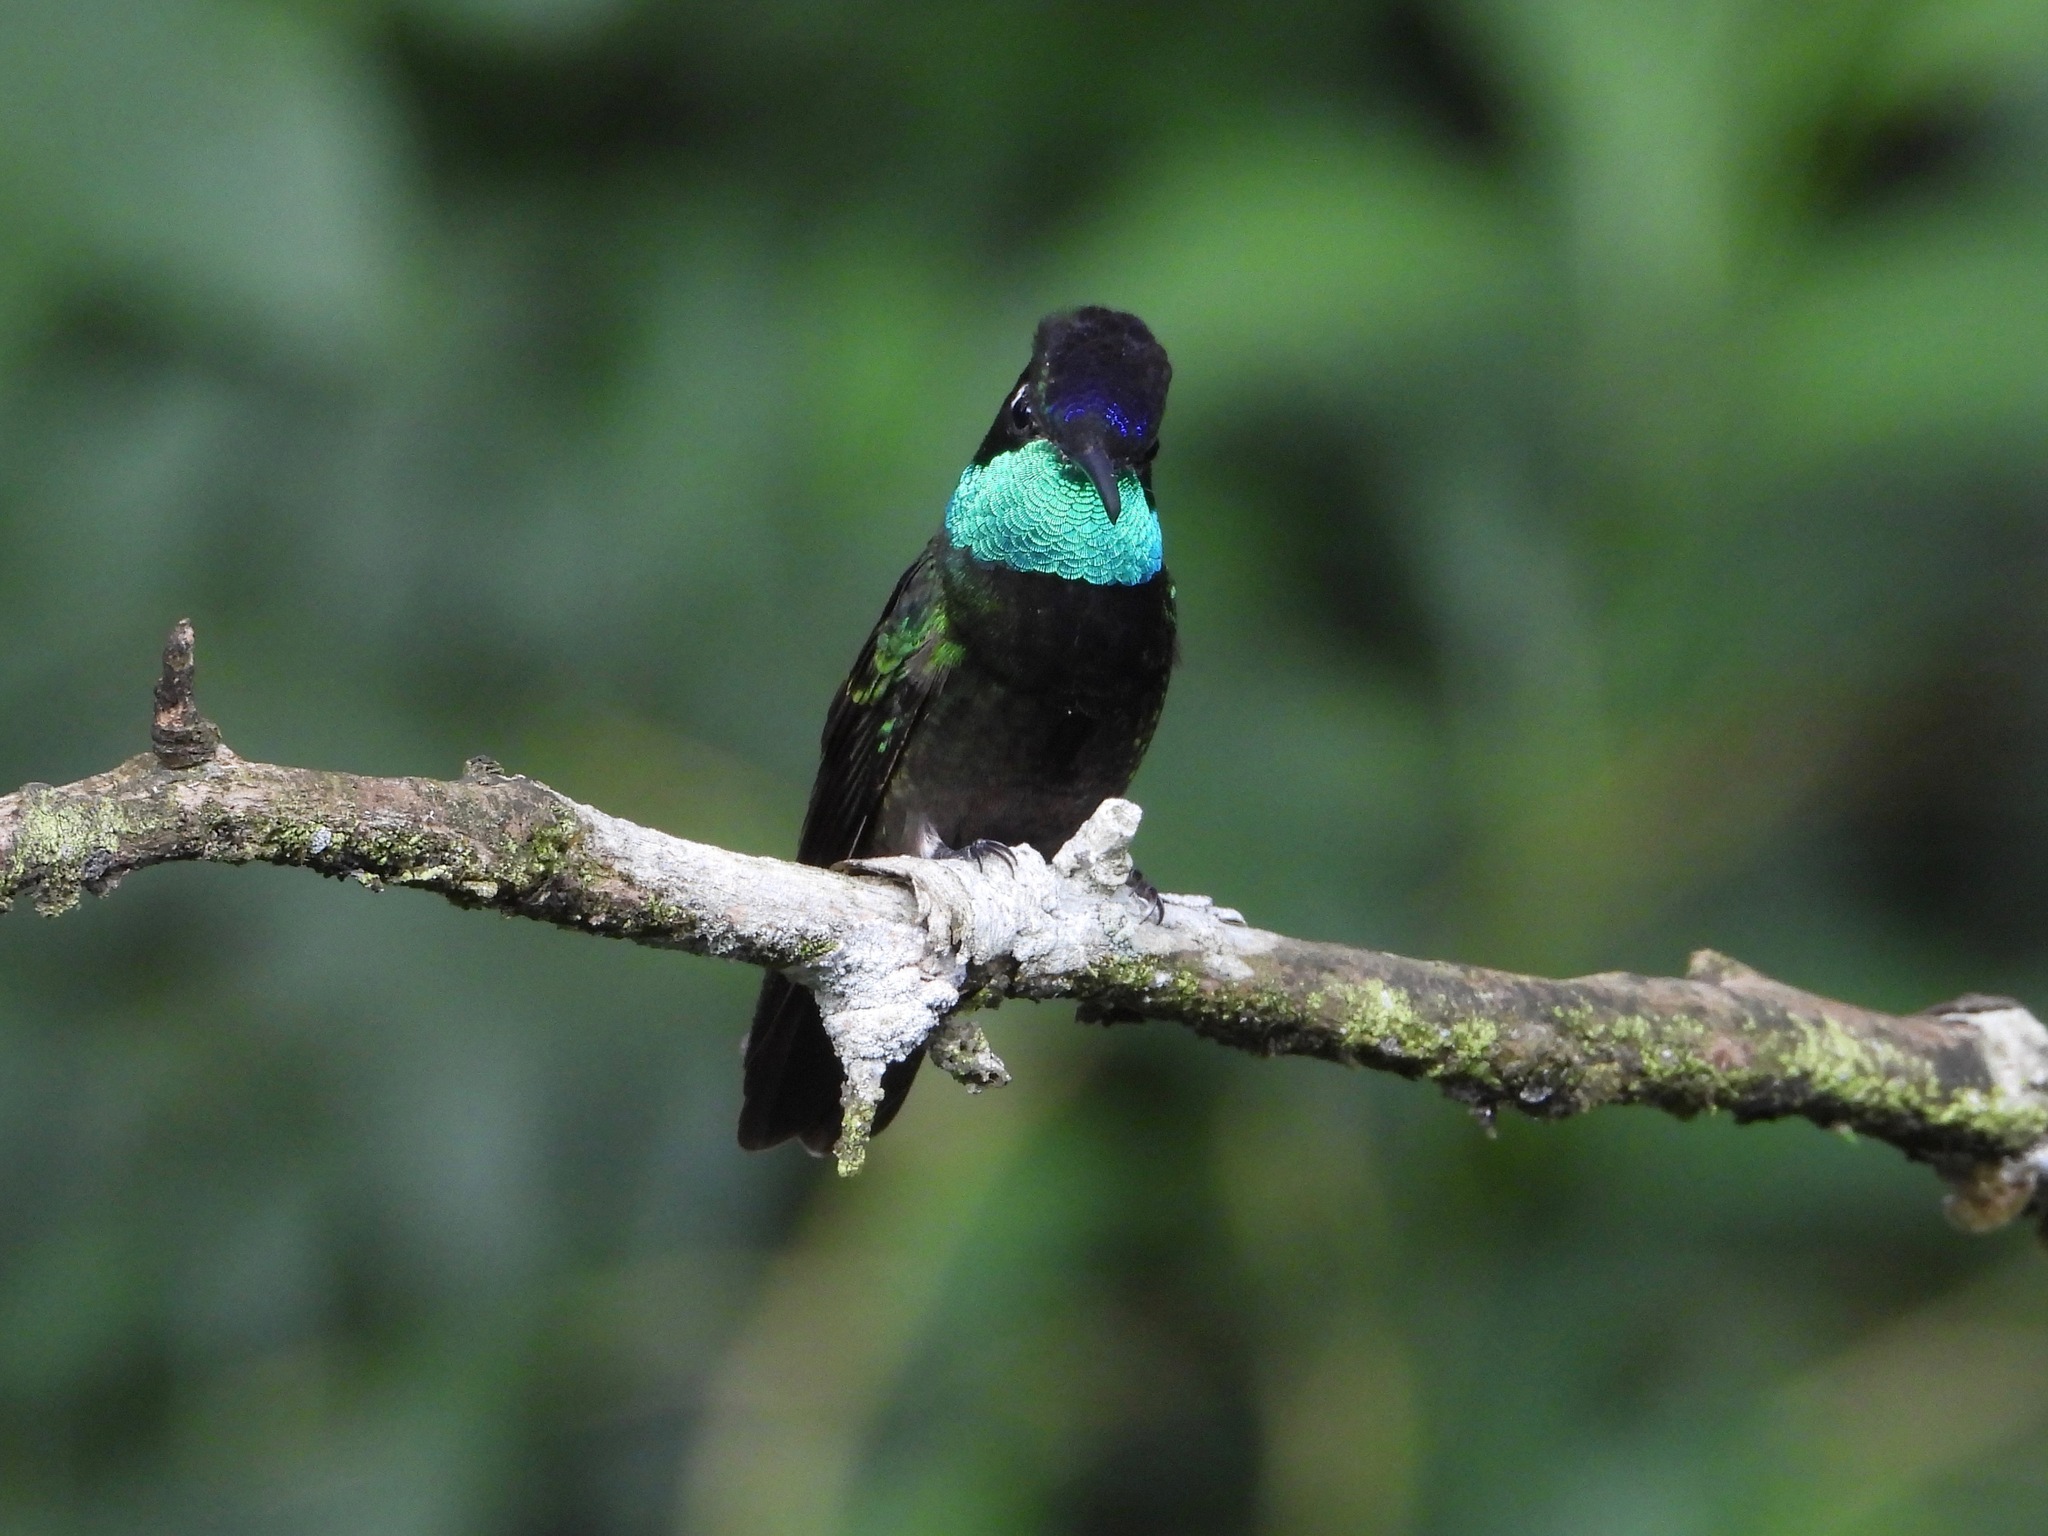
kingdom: Animalia
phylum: Chordata
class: Aves
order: Apodiformes
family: Trochilidae
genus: Eugenes
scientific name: Eugenes fulgens
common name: Magnificent hummingbird
